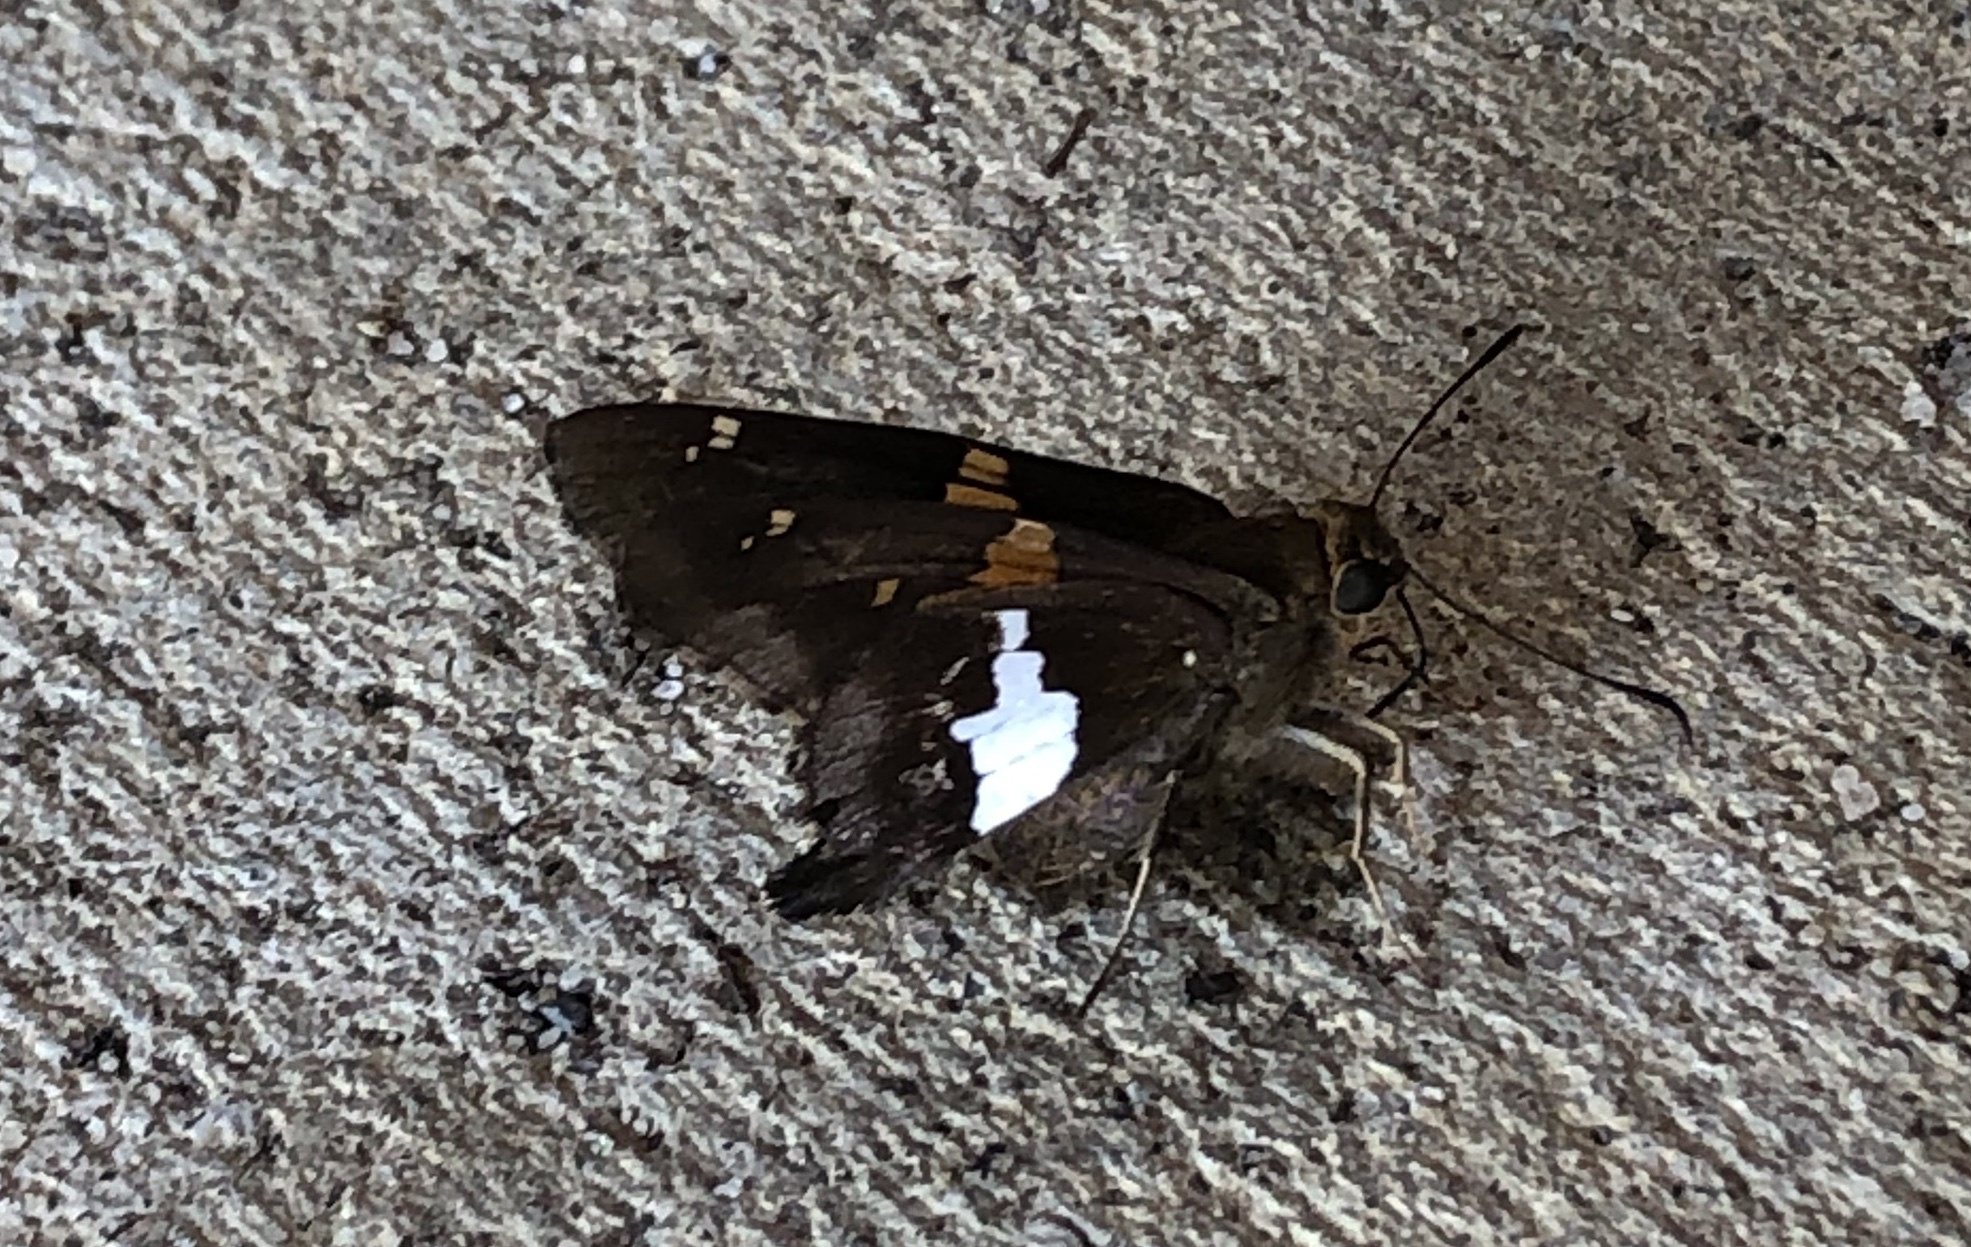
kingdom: Animalia
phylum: Arthropoda
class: Insecta
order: Lepidoptera
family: Hesperiidae
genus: Epargyreus
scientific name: Epargyreus clarus
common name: Silver-spotted skipper
